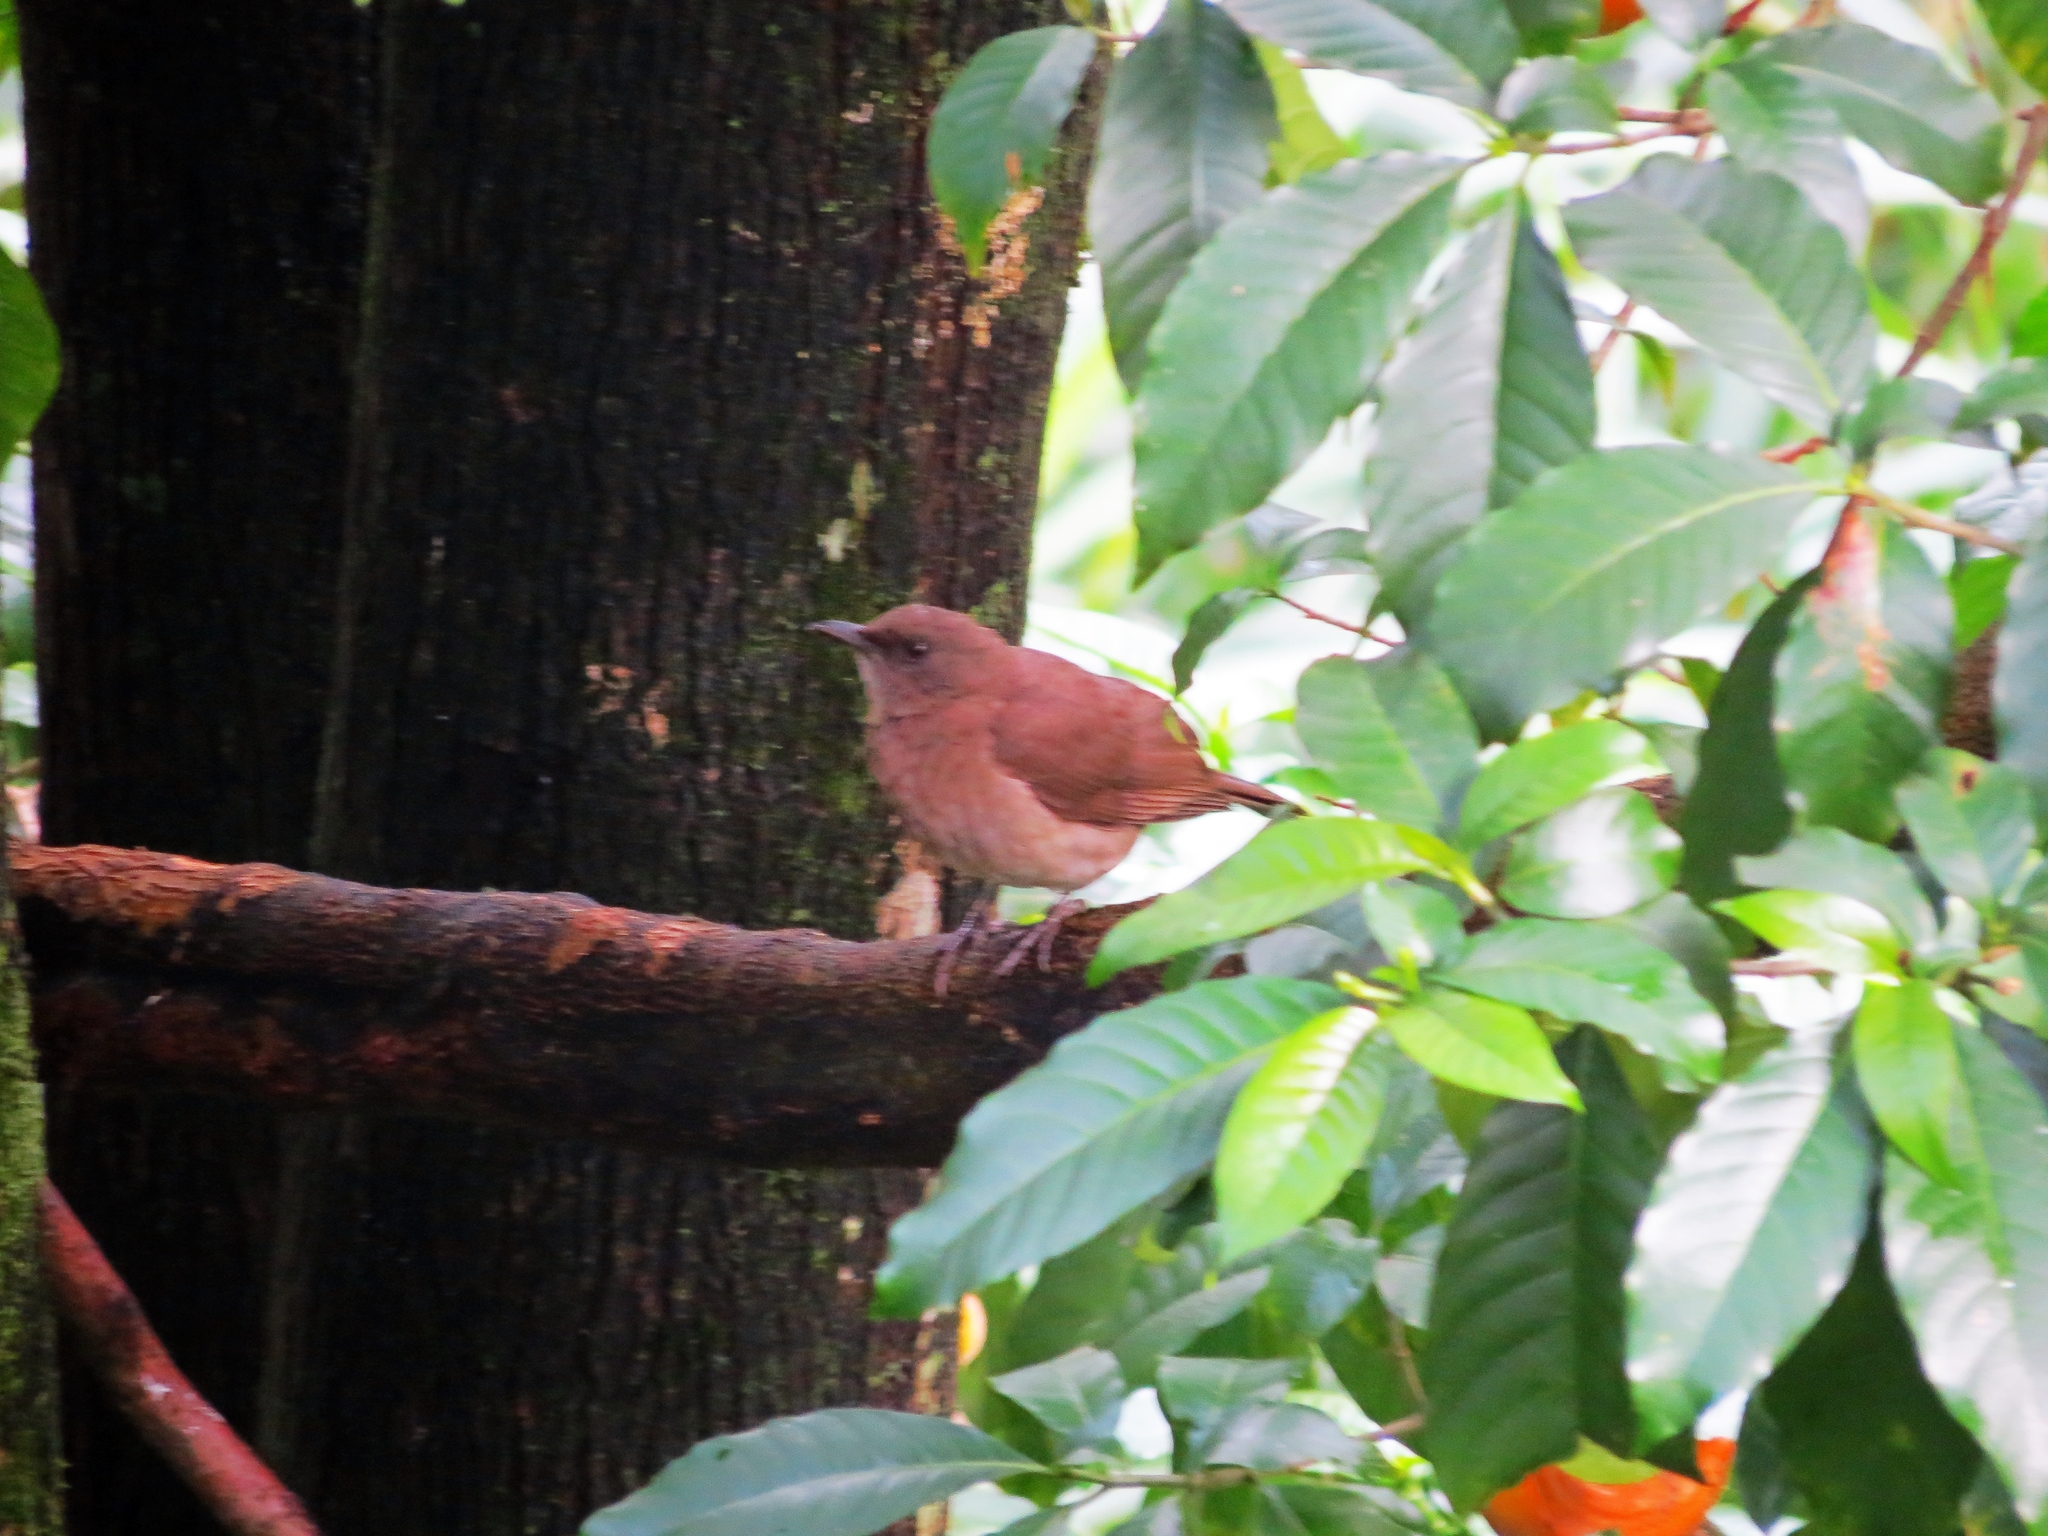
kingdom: Animalia
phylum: Chordata
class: Aves
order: Passeriformes
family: Turdidae
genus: Turdus
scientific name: Turdus ignobilis
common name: Black-billed thrush
